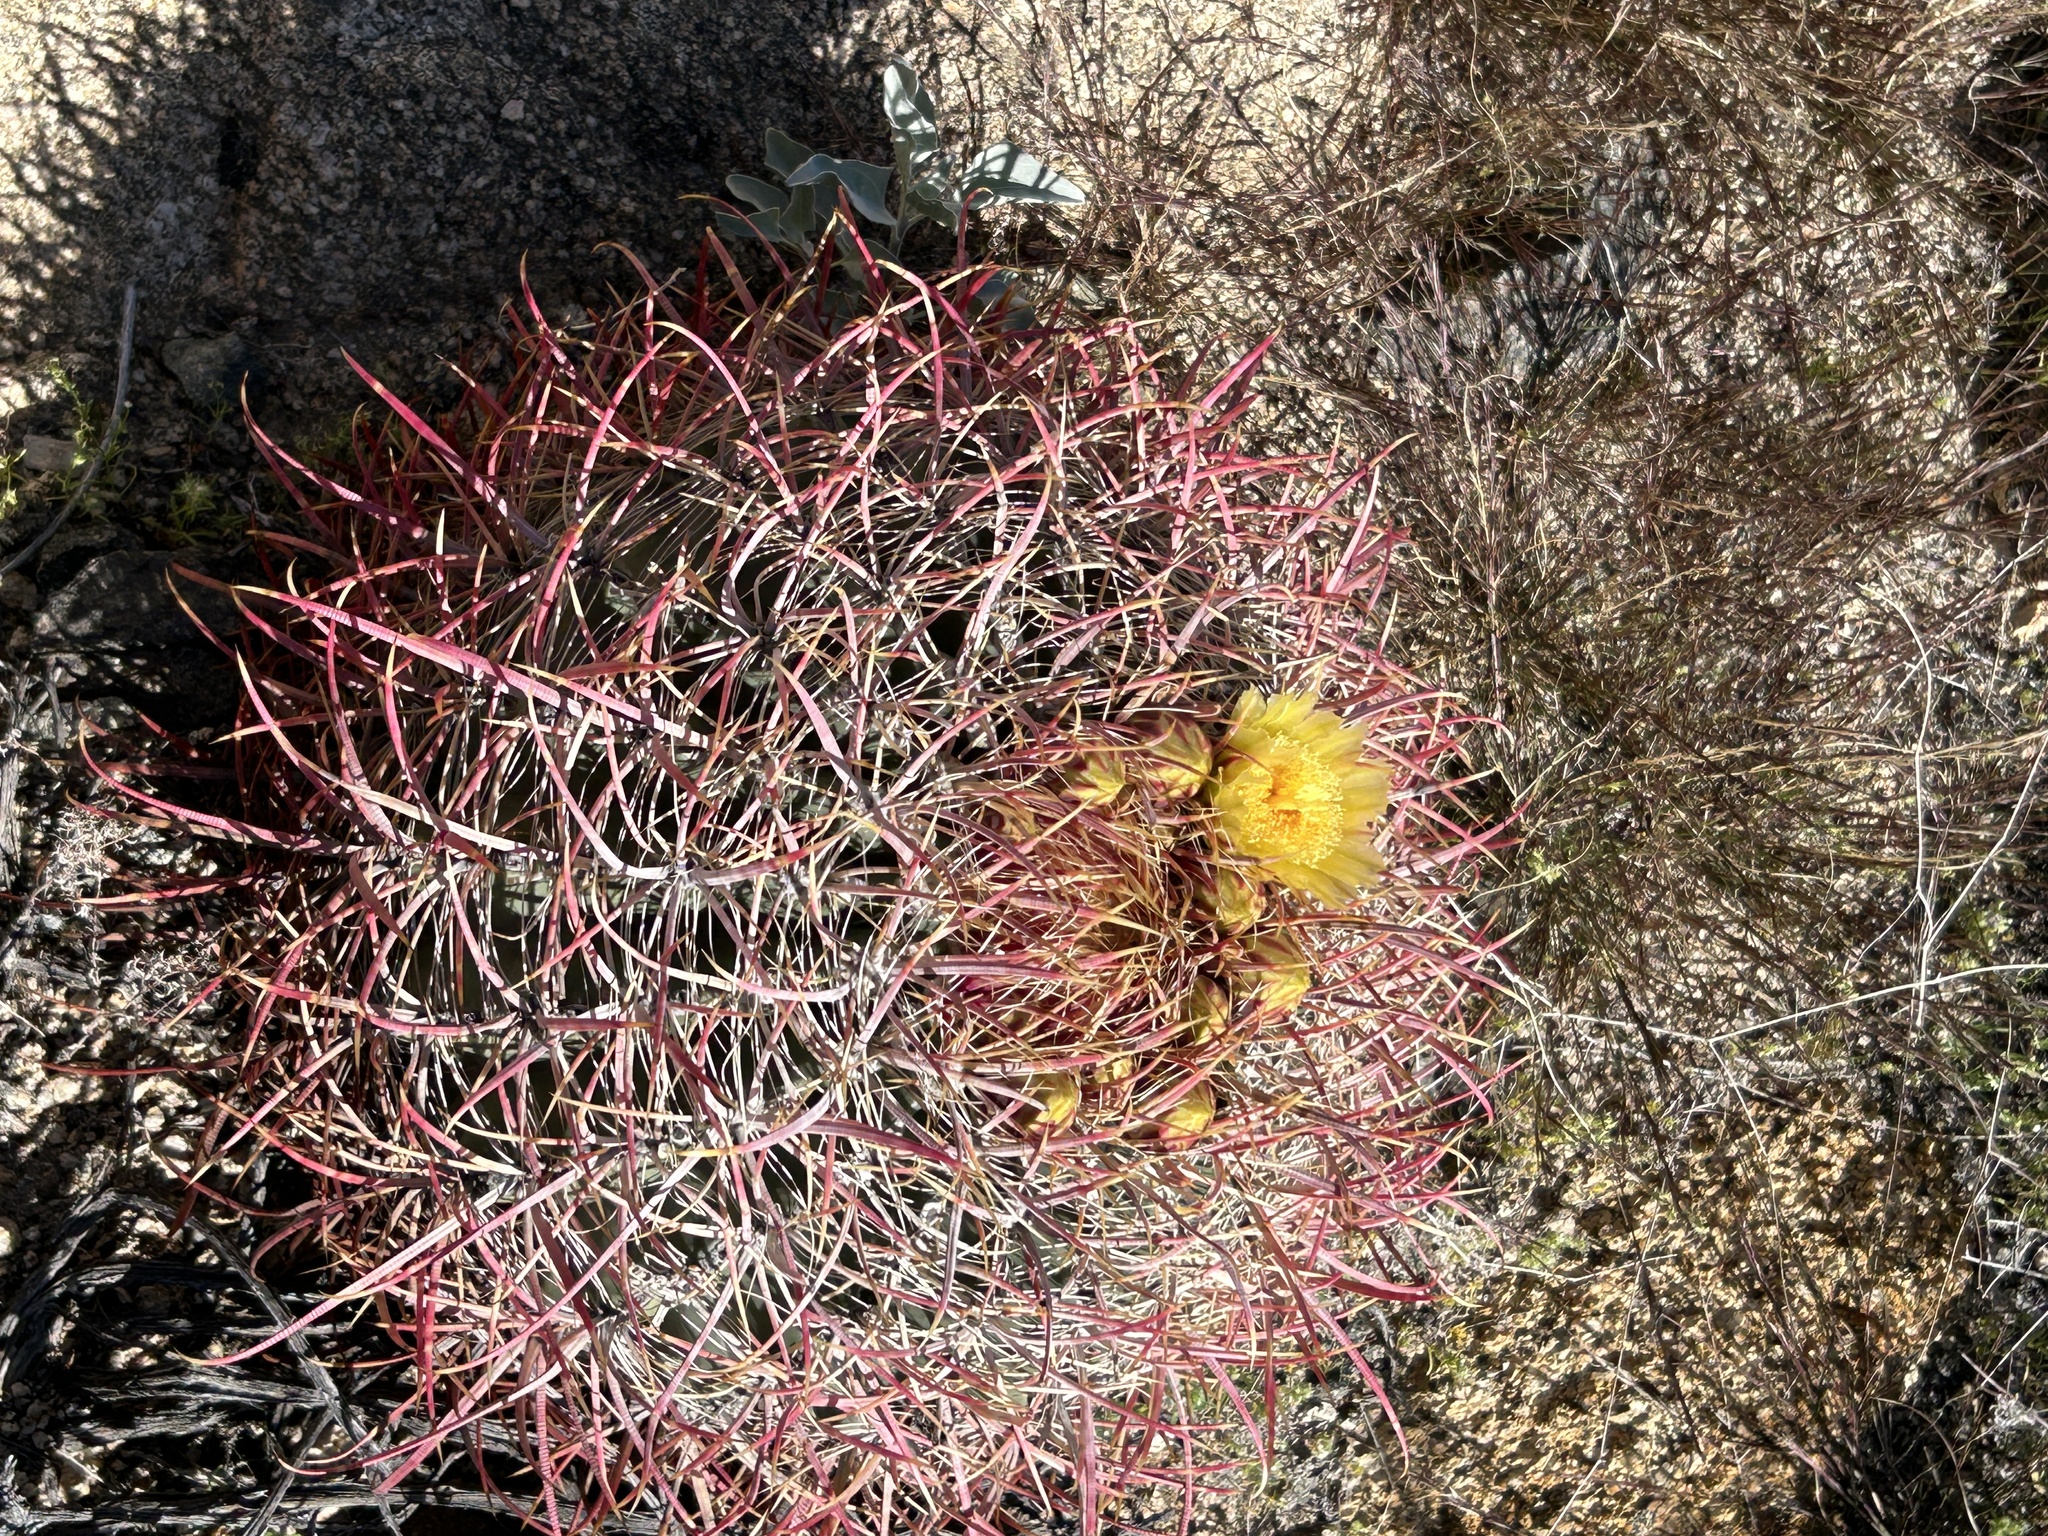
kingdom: Plantae
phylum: Tracheophyta
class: Magnoliopsida
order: Caryophyllales
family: Cactaceae
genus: Ferocactus
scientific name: Ferocactus cylindraceus
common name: California barrel cactus
